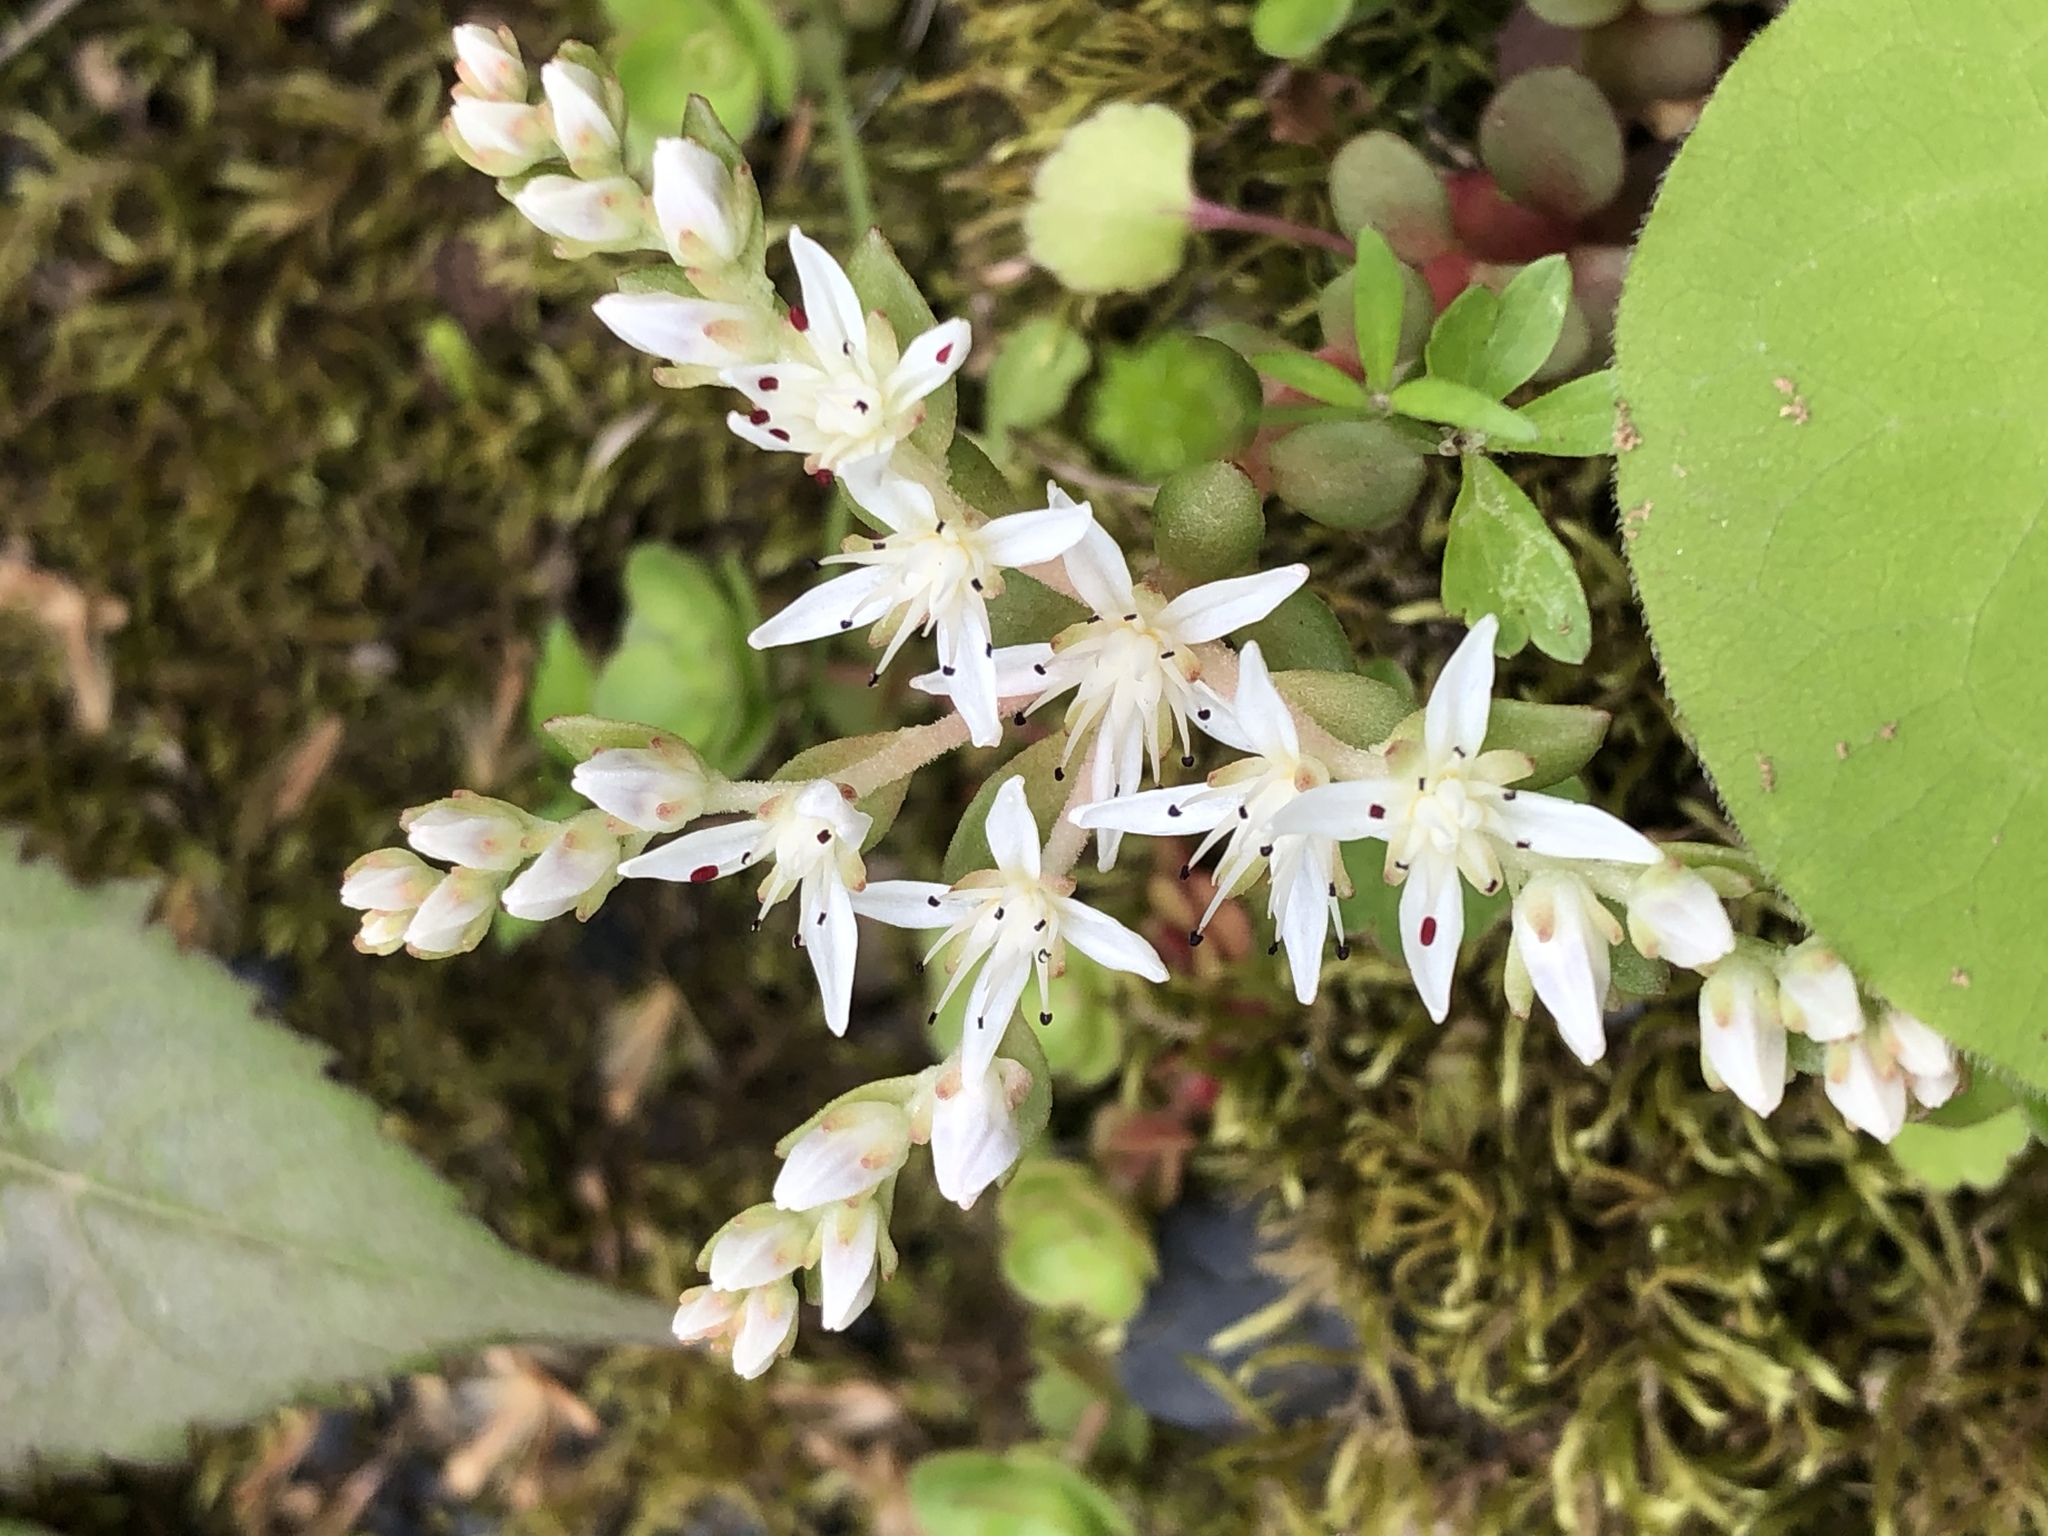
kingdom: Plantae
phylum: Tracheophyta
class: Magnoliopsida
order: Saxifragales
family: Crassulaceae
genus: Sedum
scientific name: Sedum ternatum
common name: Wild stonecrop
